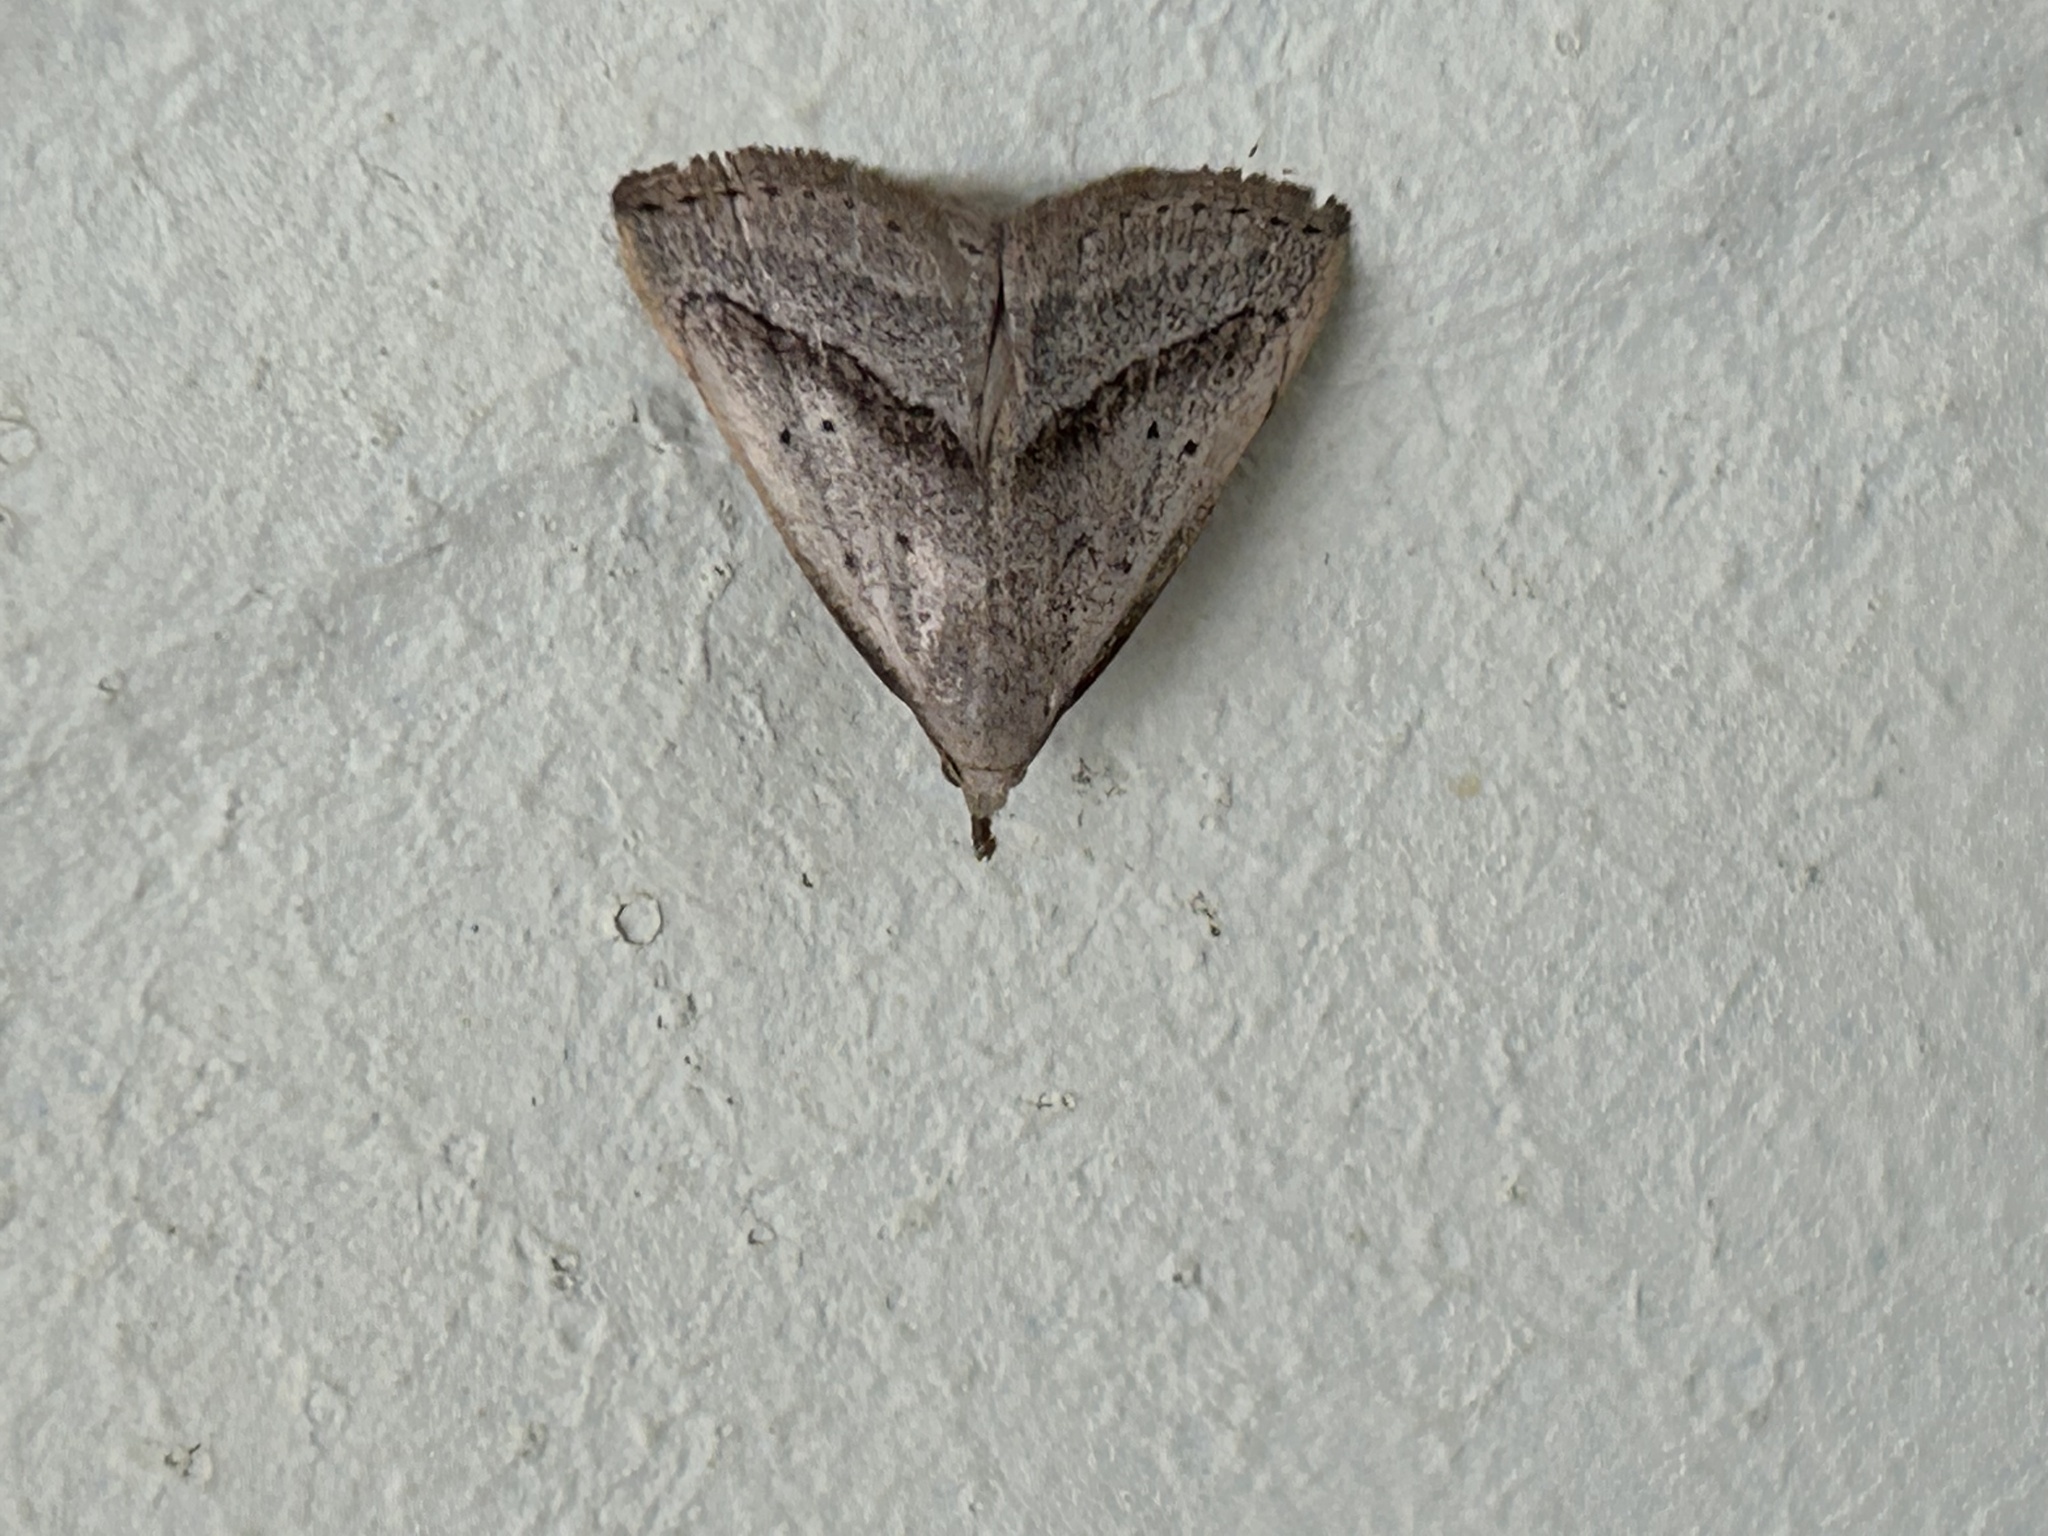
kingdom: Animalia
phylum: Arthropoda
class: Insecta
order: Lepidoptera
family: Erebidae
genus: Macrochilo
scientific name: Macrochilo hypocritalis
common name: Twin-dotted owlet
